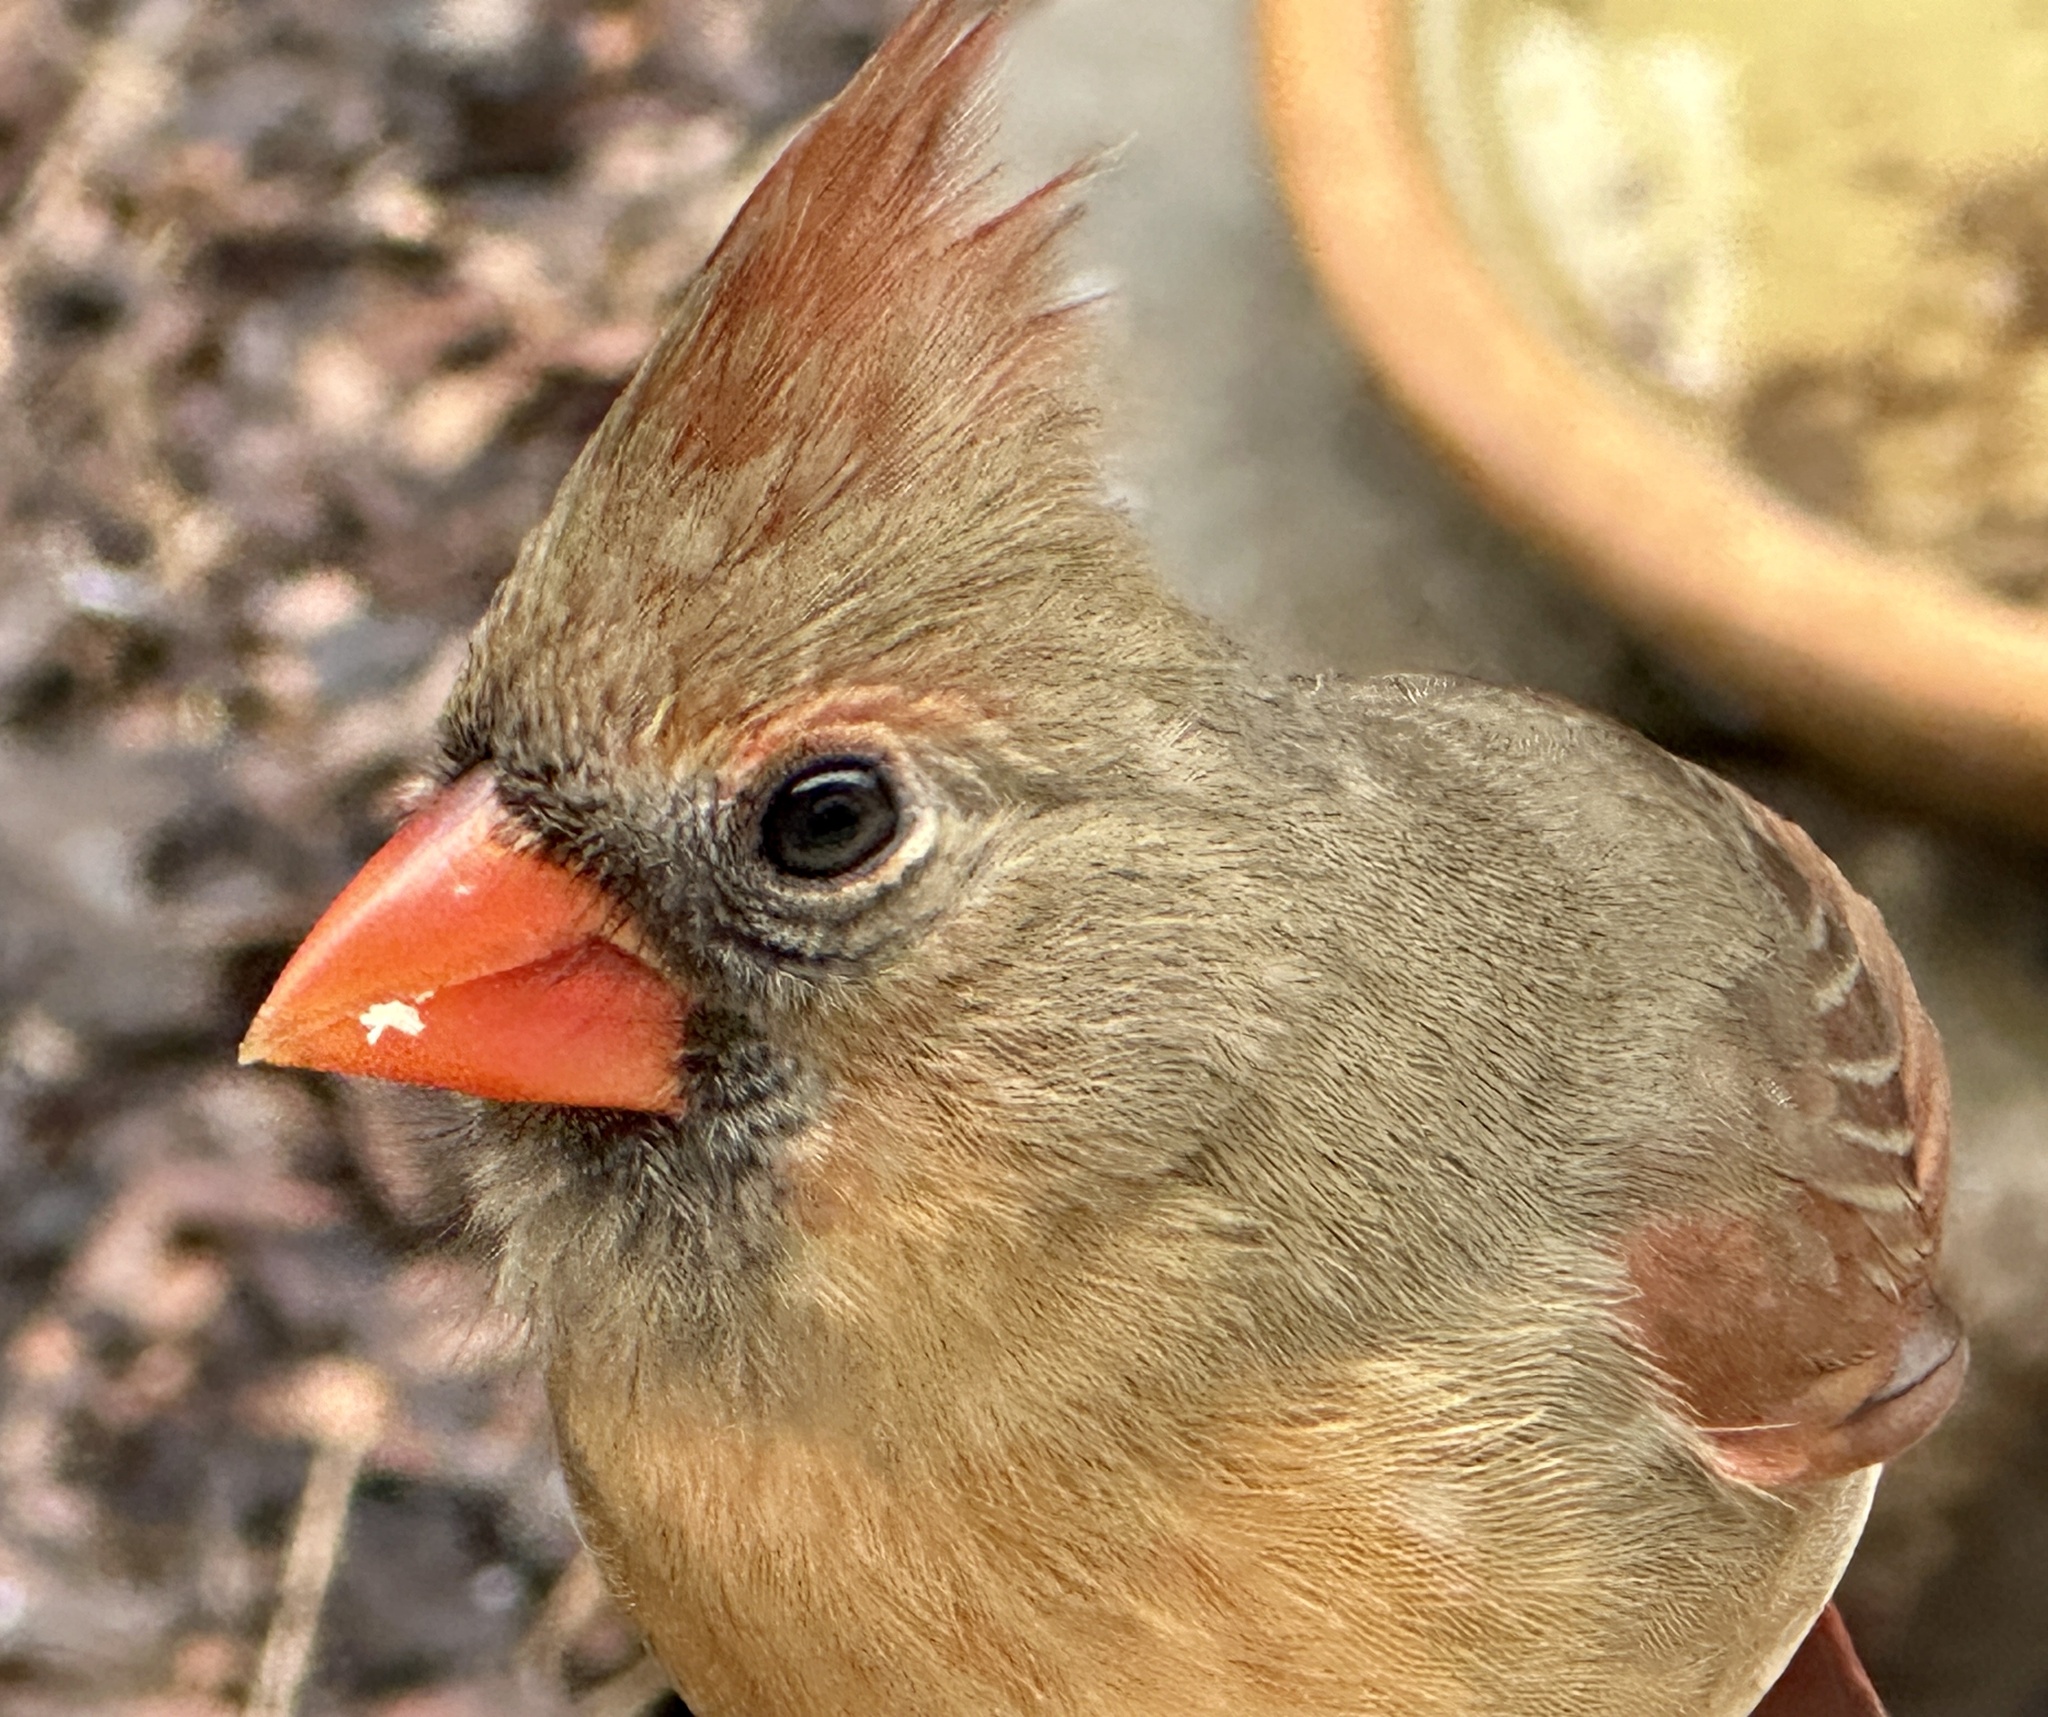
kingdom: Animalia
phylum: Chordata
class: Aves
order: Passeriformes
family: Cardinalidae
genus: Cardinalis
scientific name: Cardinalis cardinalis
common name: Northern cardinal
